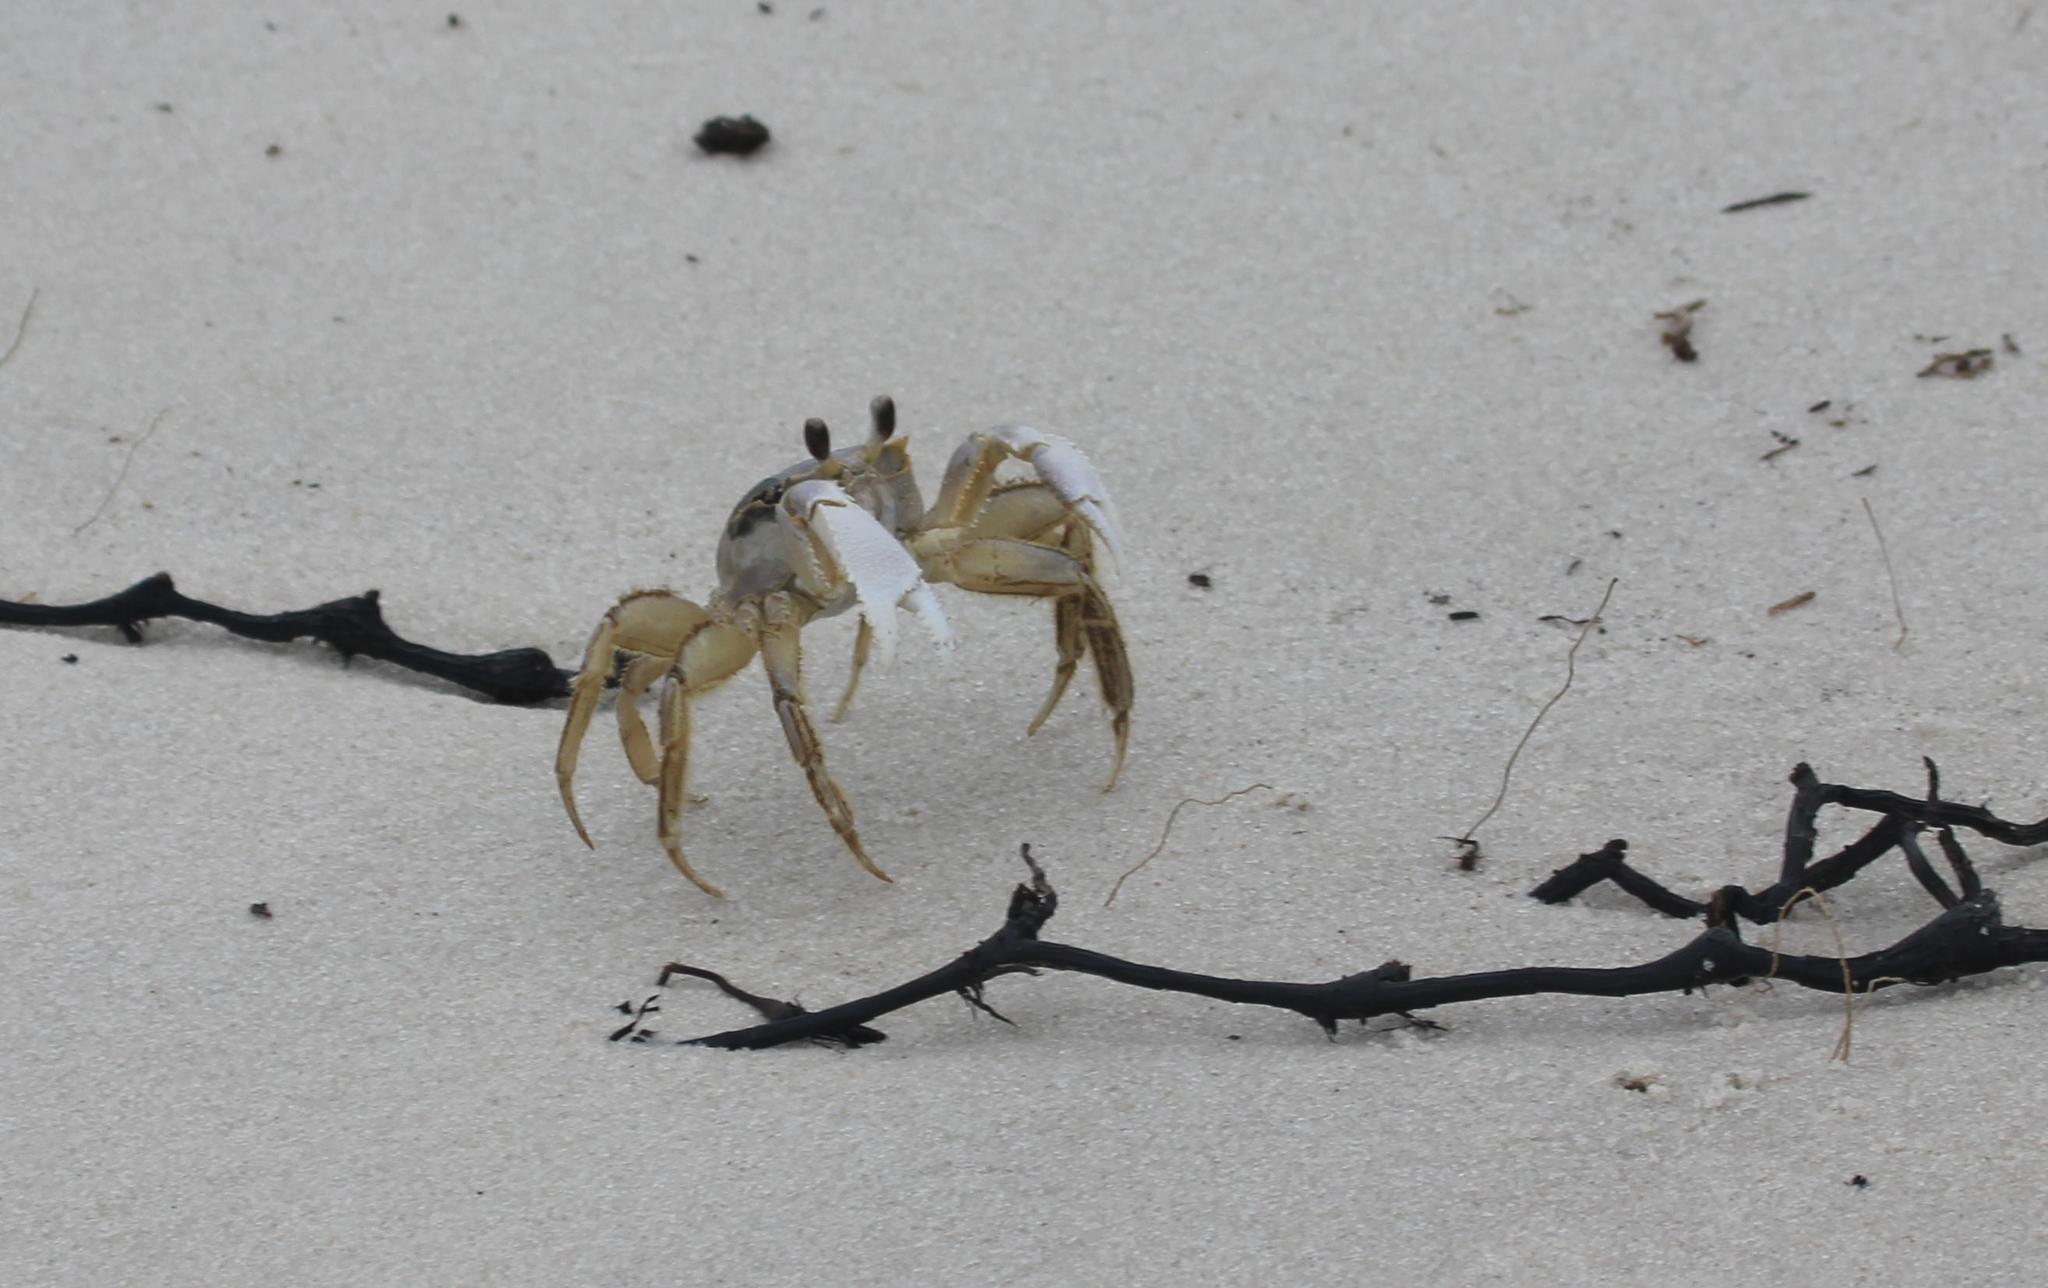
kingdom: Animalia
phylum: Arthropoda
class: Malacostraca
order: Decapoda
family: Ocypodidae
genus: Ocypode
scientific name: Ocypode quadrata
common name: Ghost crab
